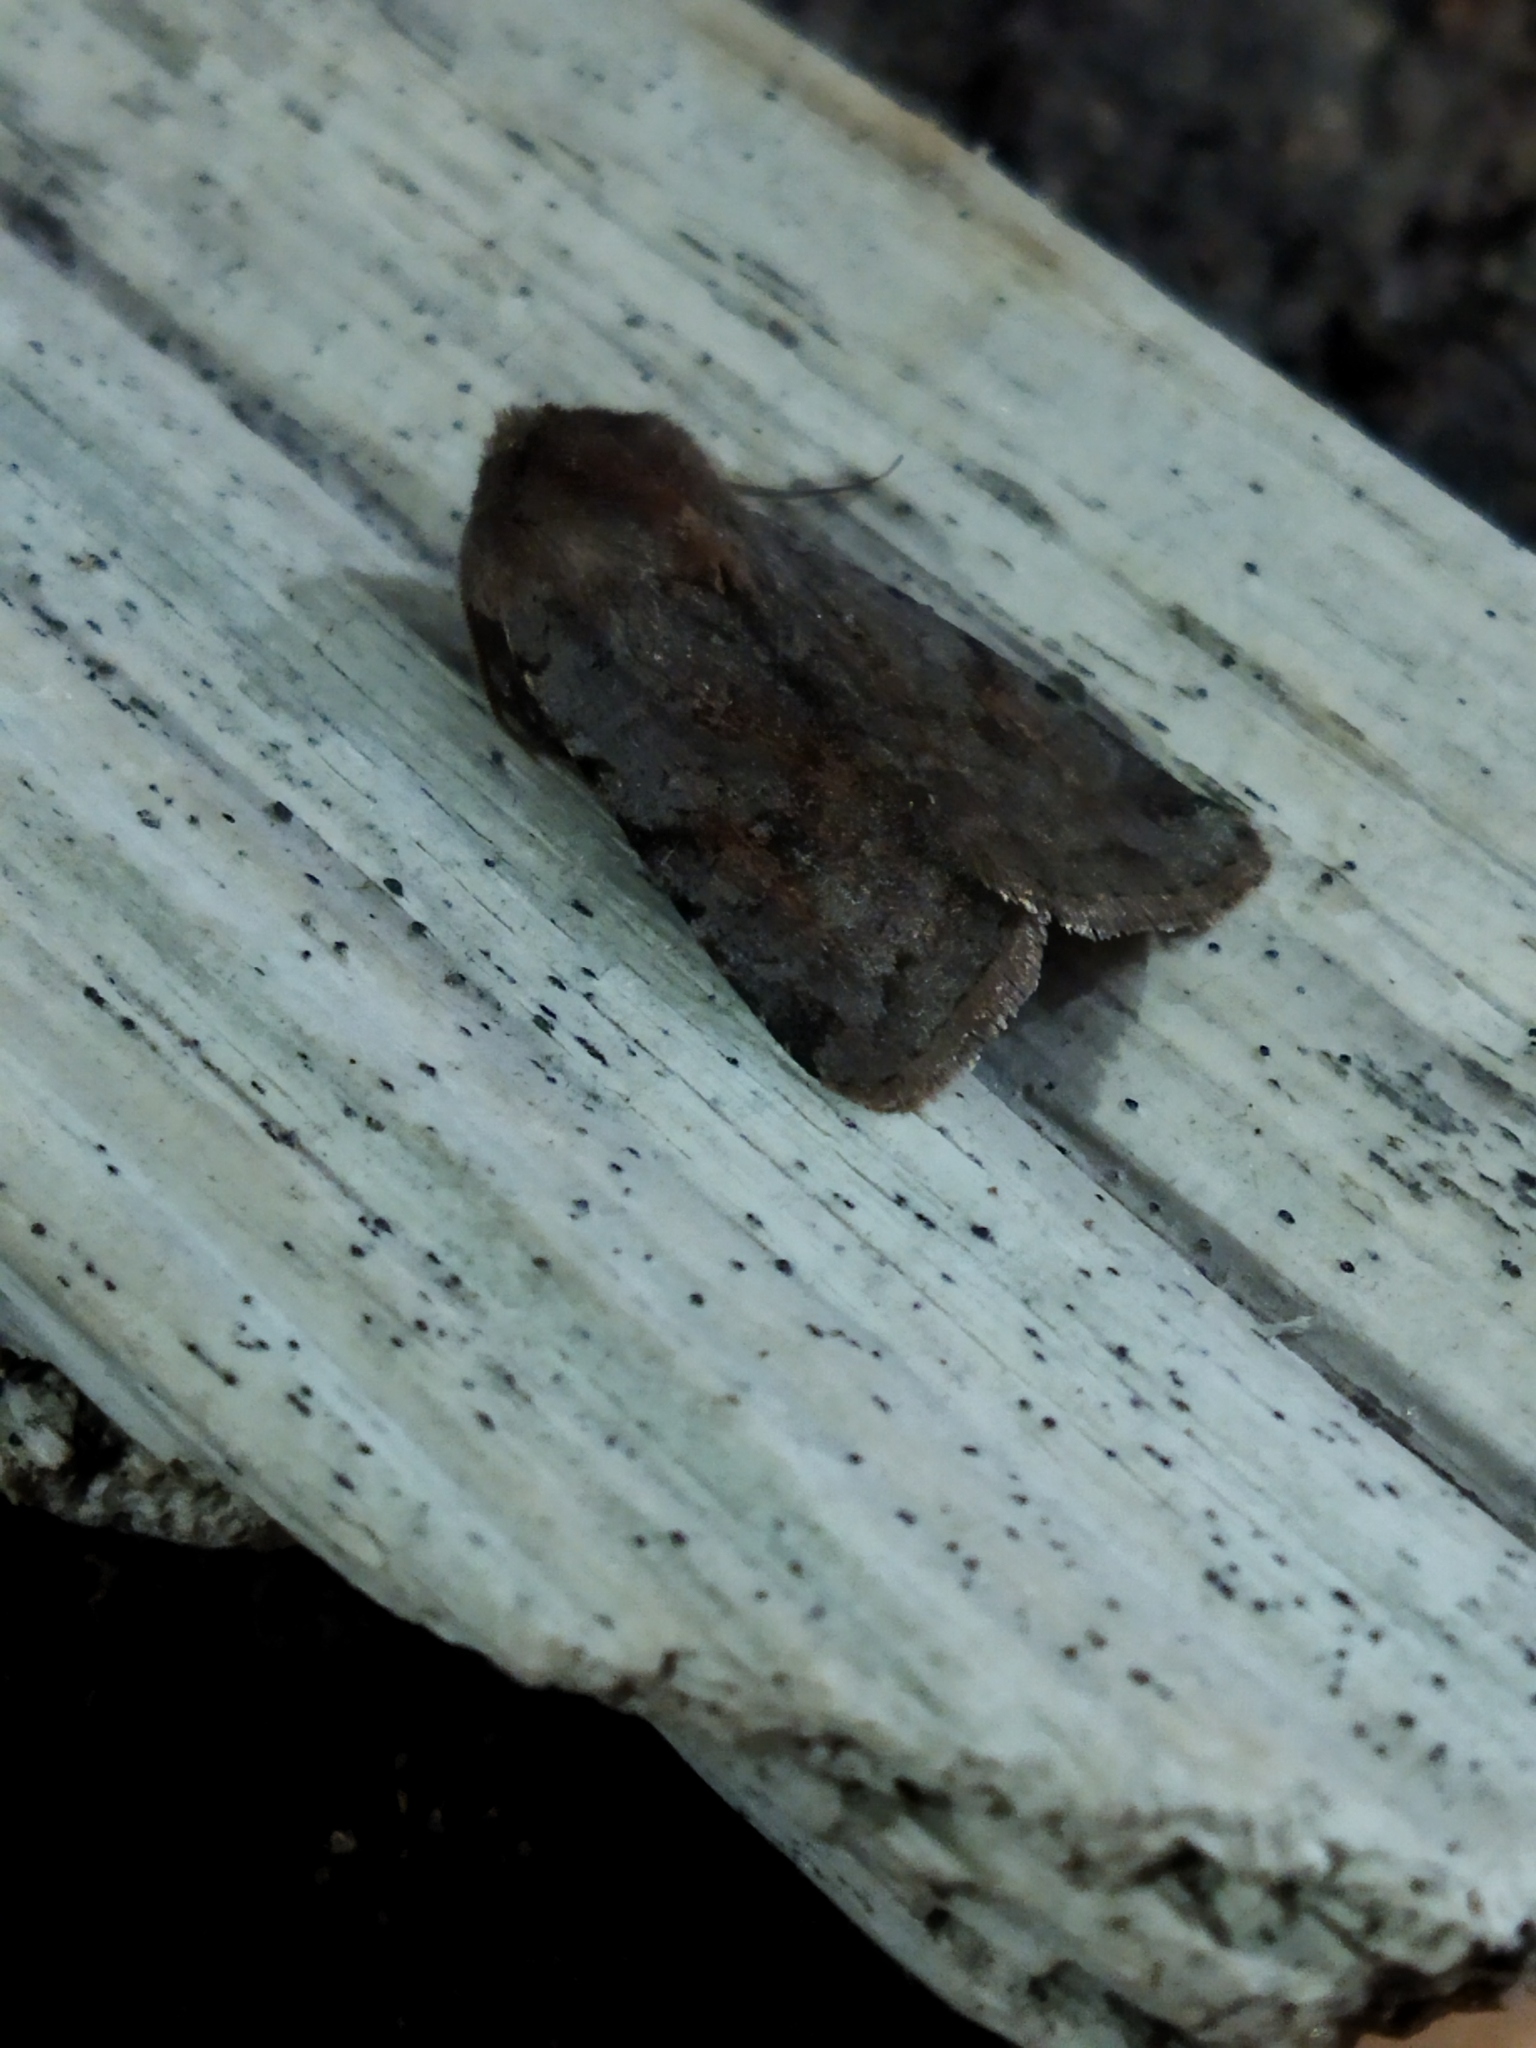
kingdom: Animalia
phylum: Arthropoda
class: Insecta
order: Lepidoptera
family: Noctuidae
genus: Cerastis
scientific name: Cerastis rubricosa
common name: Red chestnut
